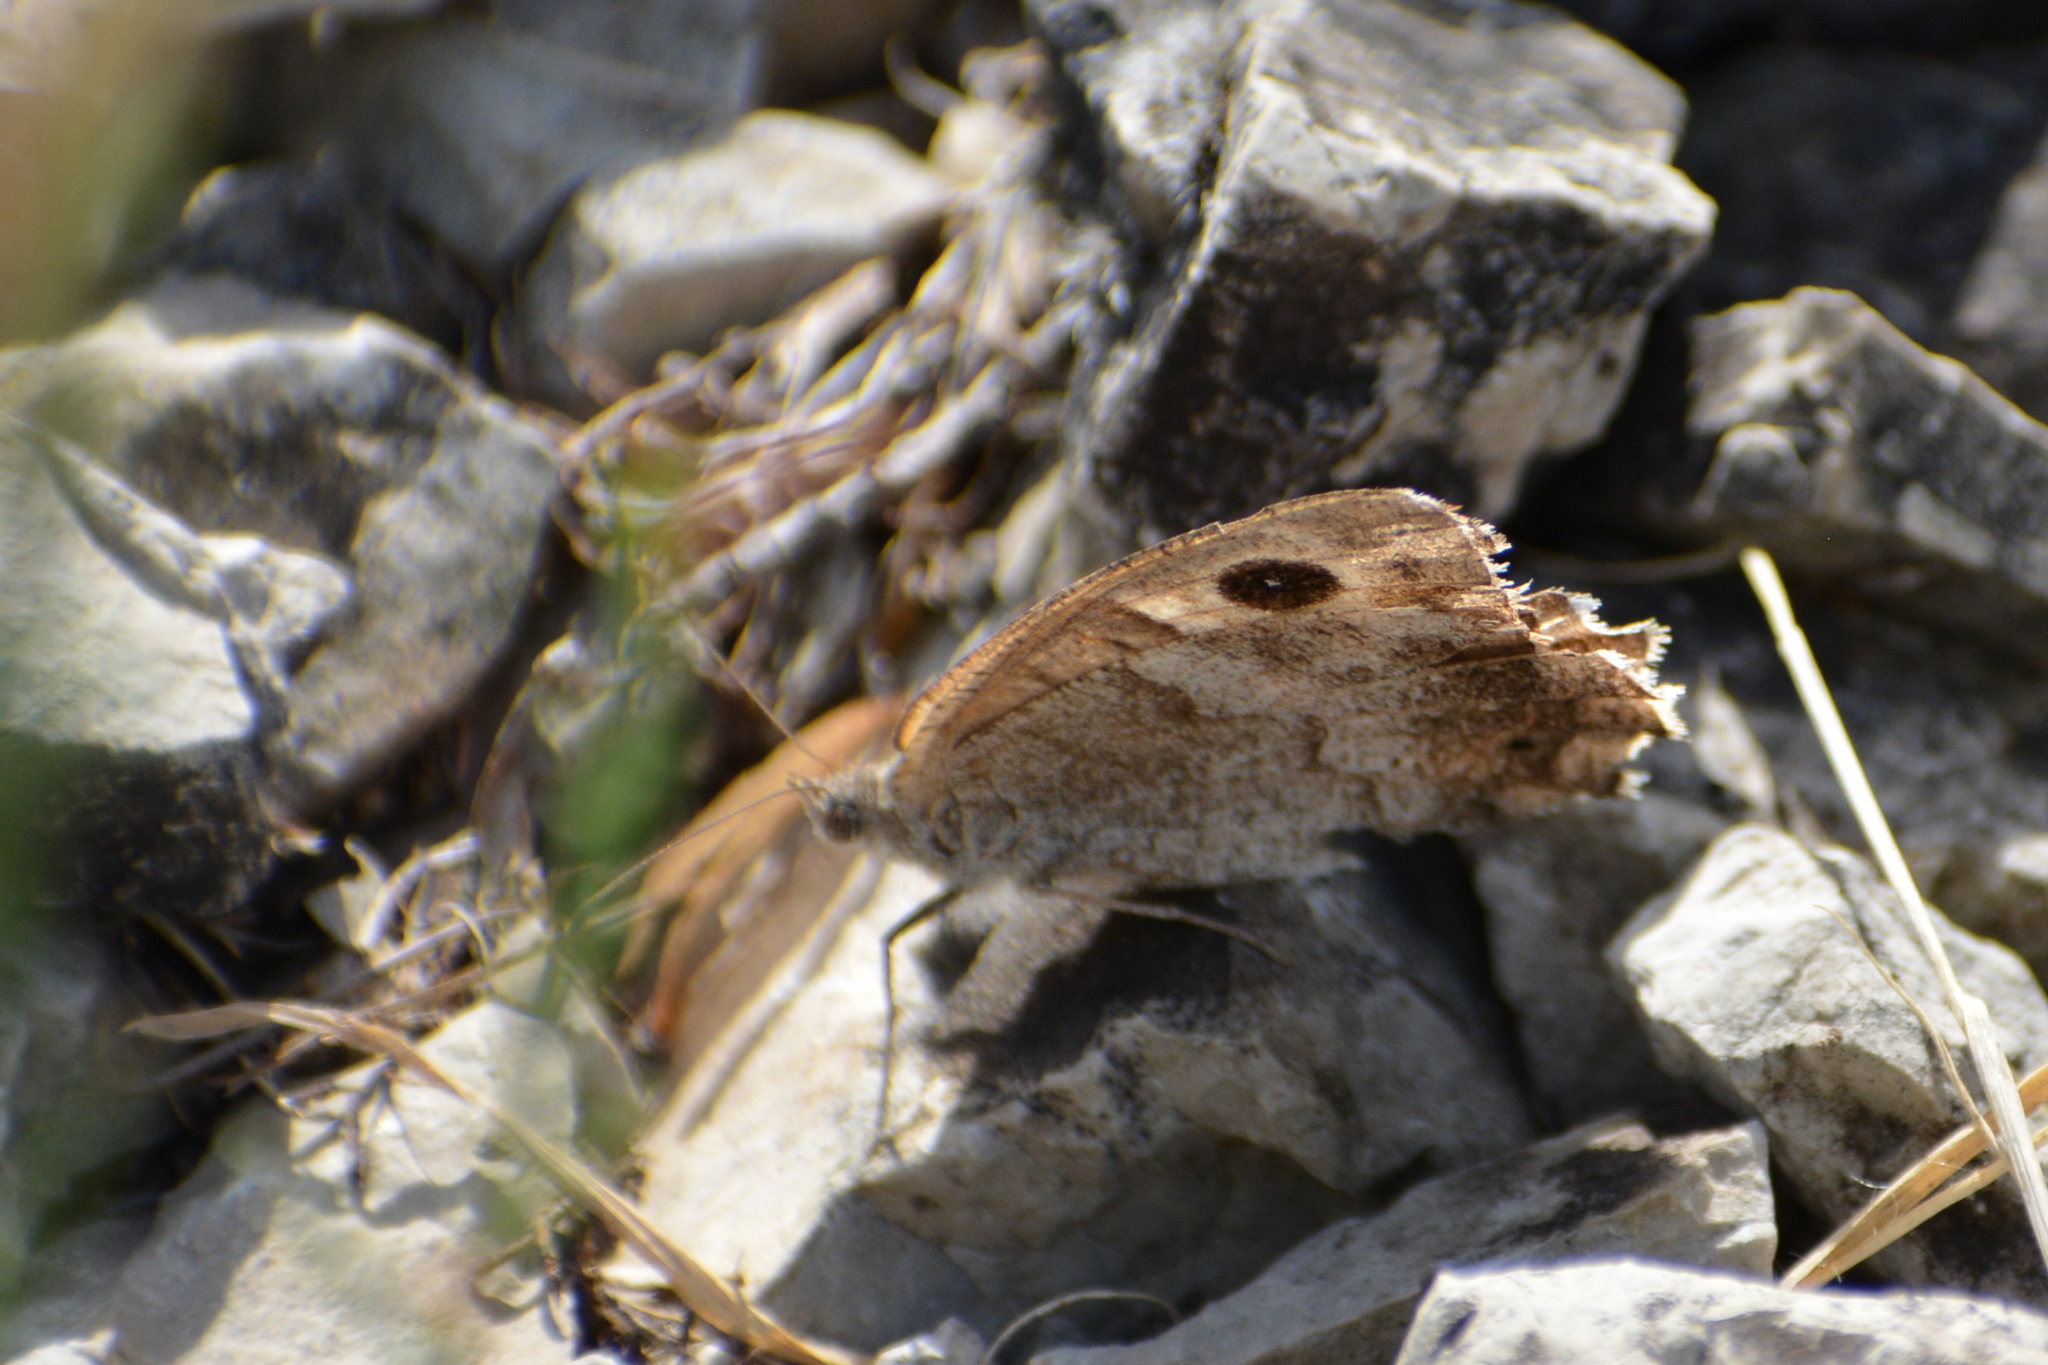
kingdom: Animalia
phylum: Arthropoda
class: Insecta
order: Lepidoptera
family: Nymphalidae
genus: Hipparchia
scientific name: Hipparchia statilinus
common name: Tree grayling
